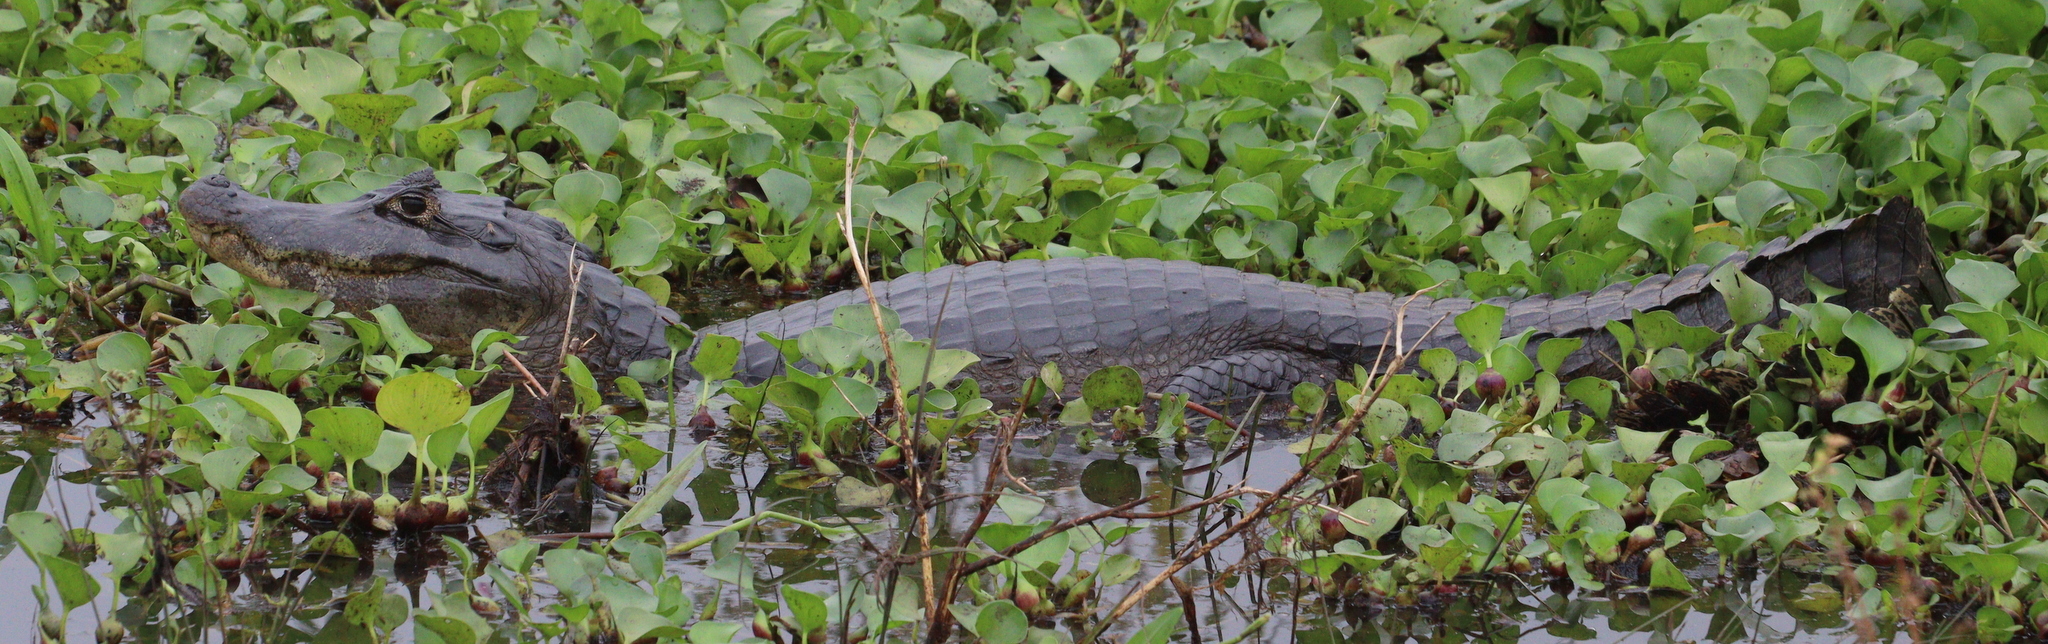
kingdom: Animalia
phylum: Chordata
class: Crocodylia
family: Alligatoridae
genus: Caiman
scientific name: Caiman yacare
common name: Yacare caiman
